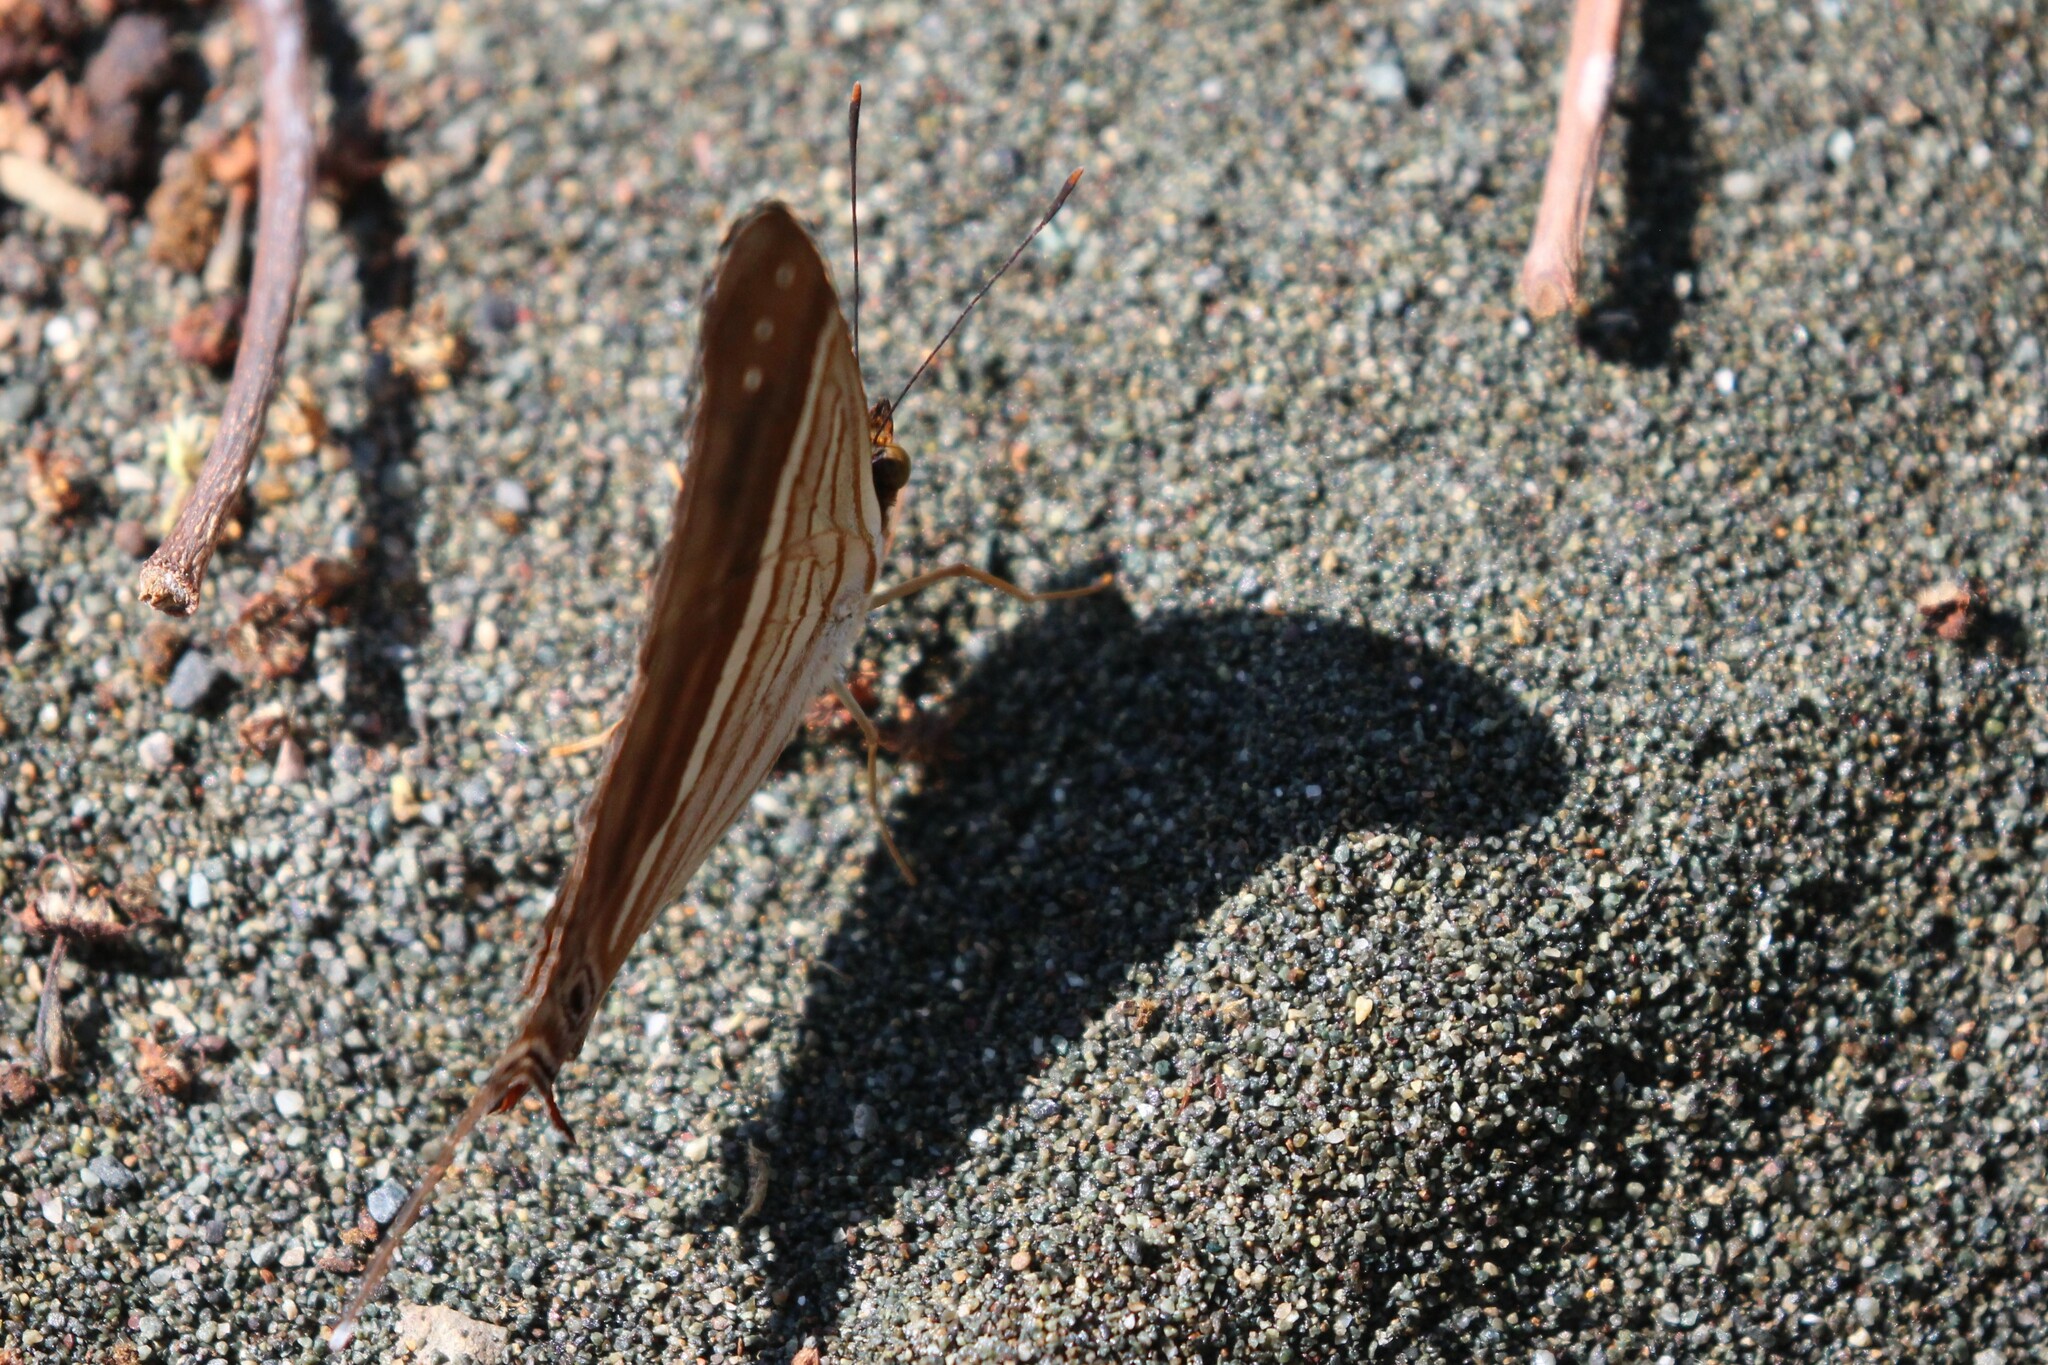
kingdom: Animalia
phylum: Arthropoda
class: Insecta
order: Lepidoptera
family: Nymphalidae
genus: Marpesia
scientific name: Marpesia chiron
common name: Many-banded daggerwing
